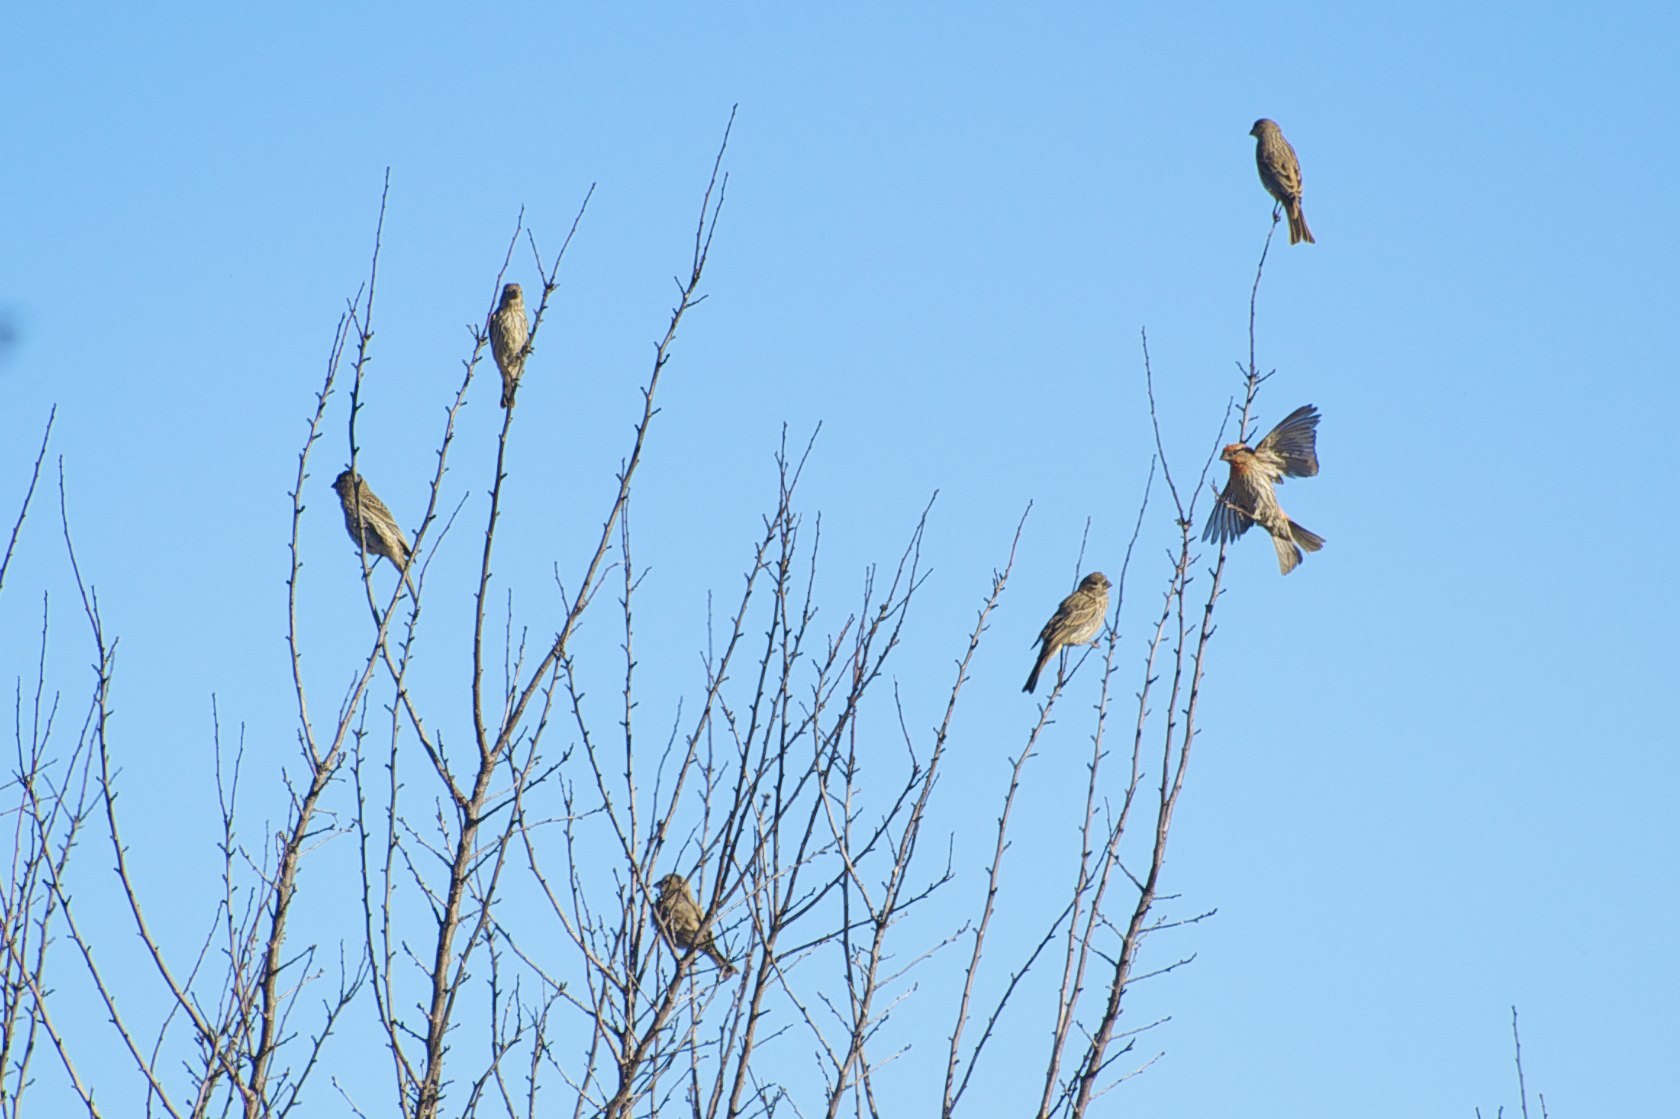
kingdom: Animalia
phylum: Chordata
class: Aves
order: Passeriformes
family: Fringillidae
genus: Haemorhous
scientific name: Haemorhous mexicanus
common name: House finch
